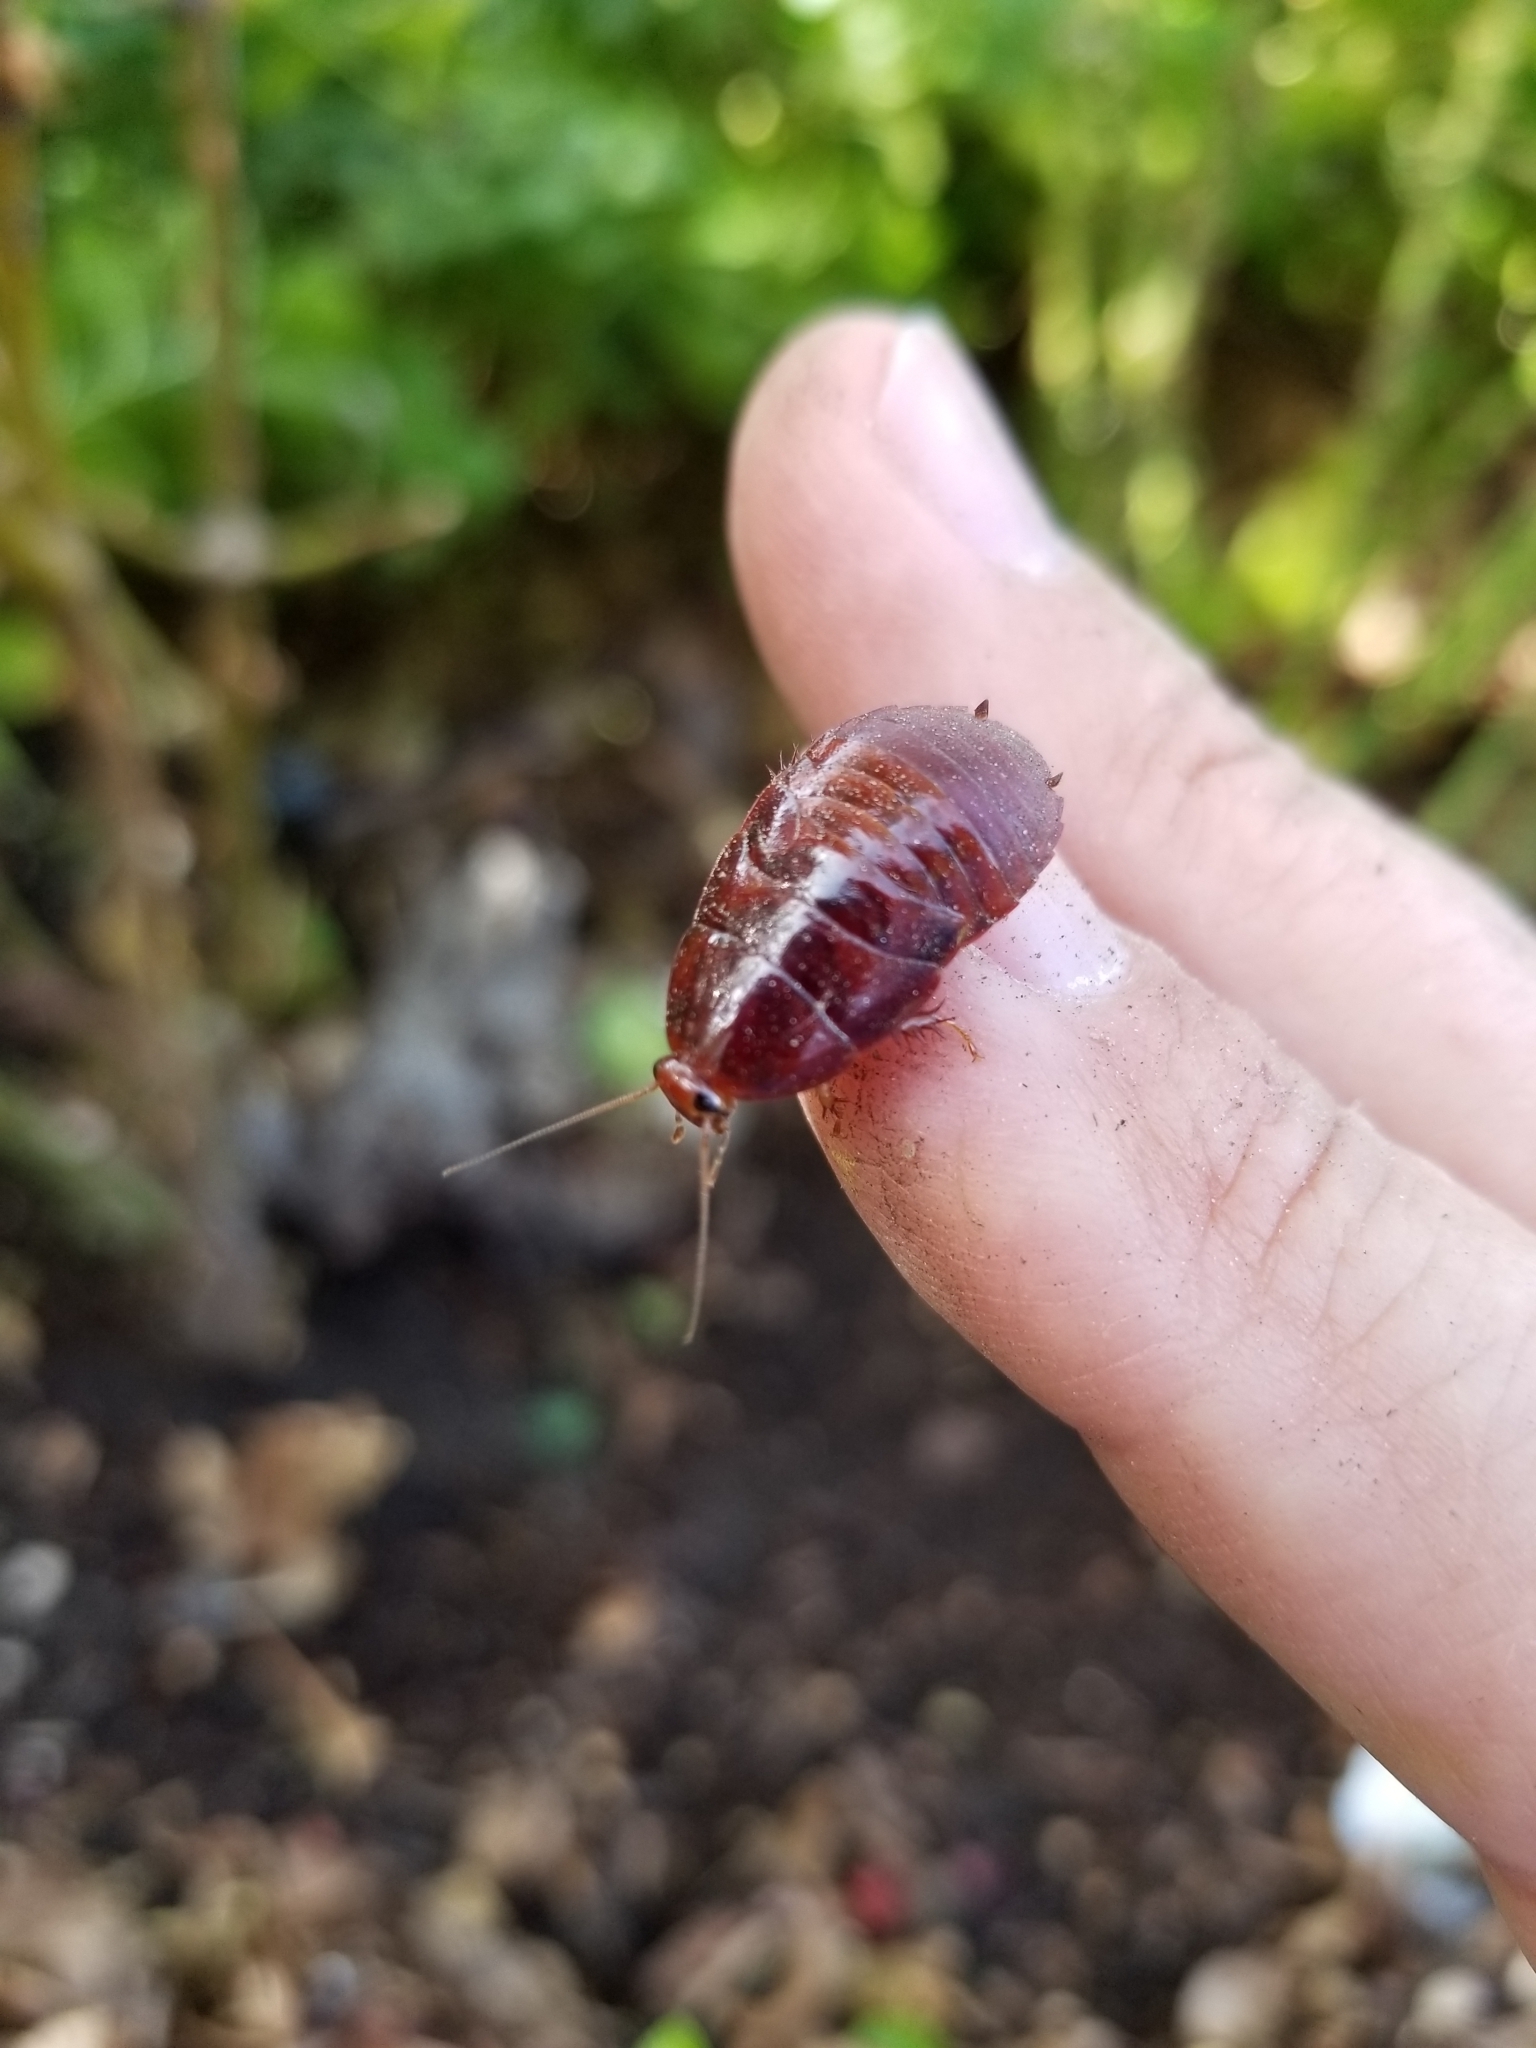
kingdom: Animalia
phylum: Arthropoda
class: Insecta
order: Blattodea
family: Blaberidae
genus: Pycnoscelus
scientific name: Pycnoscelus surinamensis
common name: Surinam cockroach
